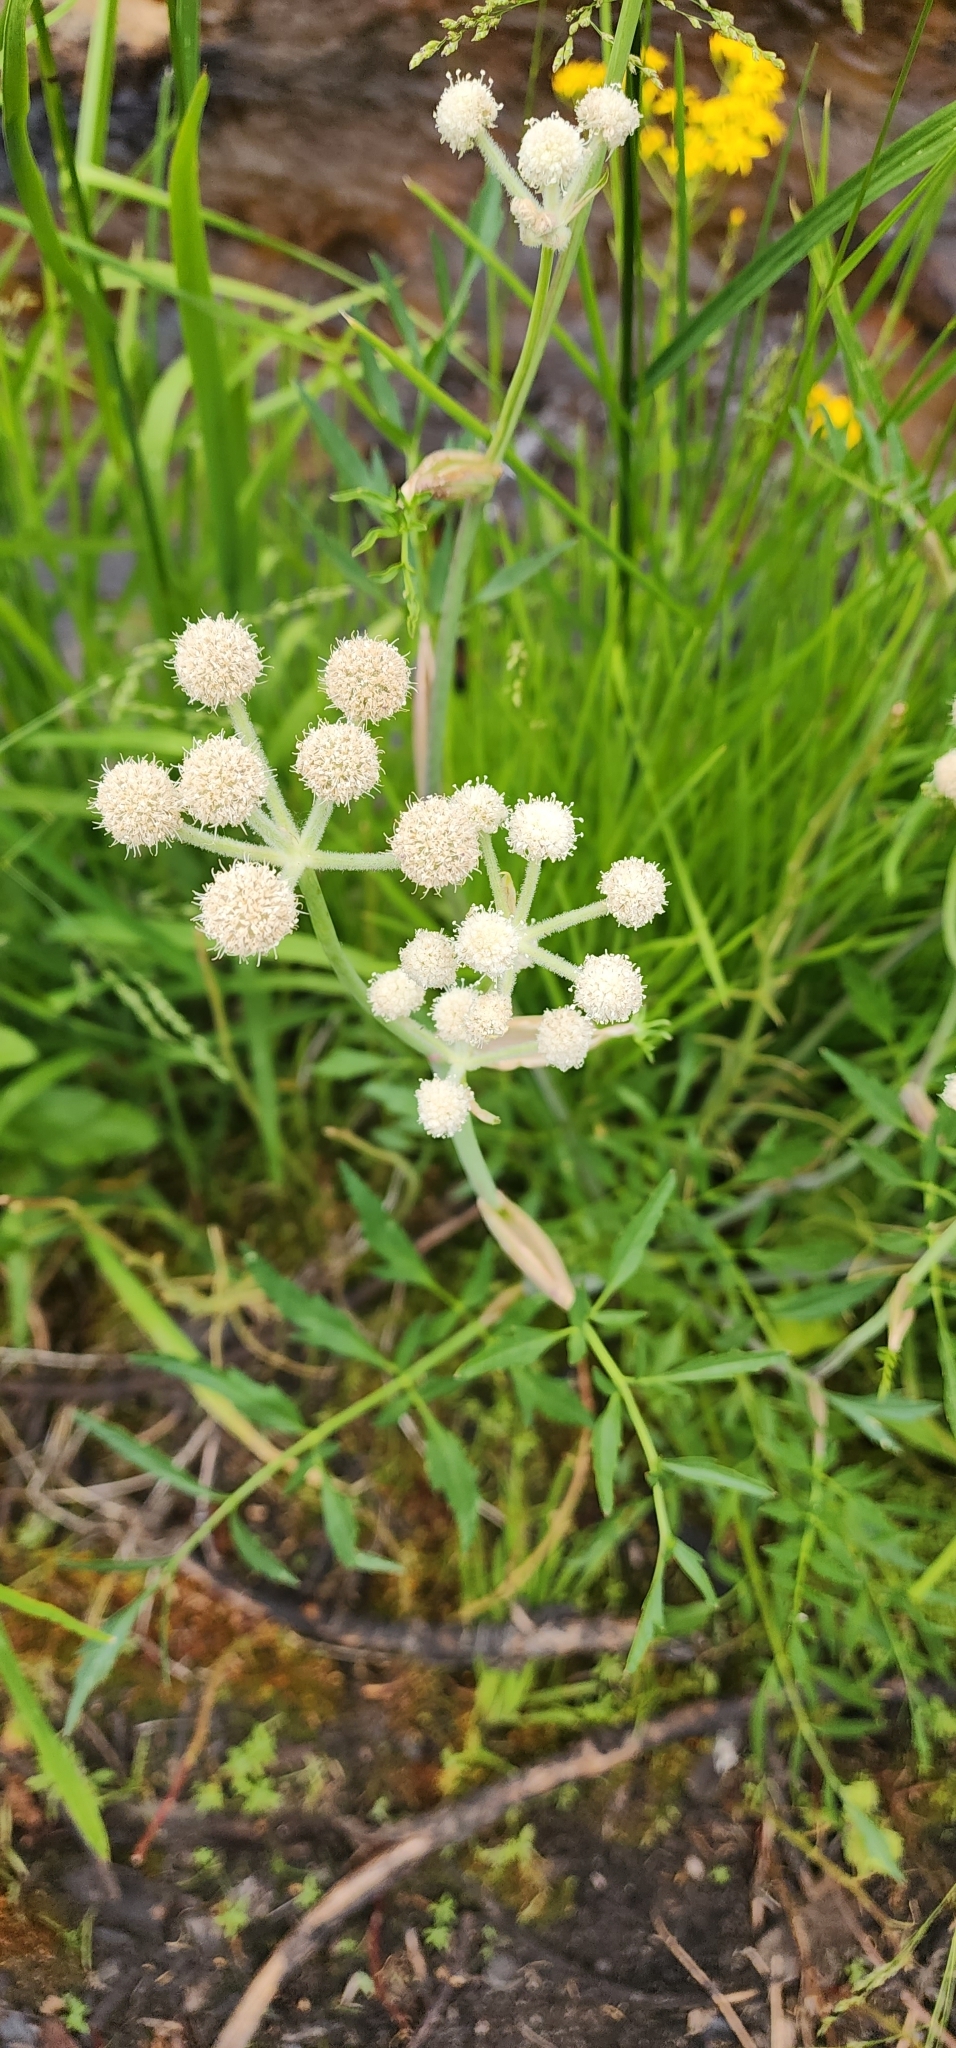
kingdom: Plantae
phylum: Tracheophyta
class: Magnoliopsida
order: Apiales
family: Apiaceae
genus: Angelica
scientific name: Angelica capitellata
